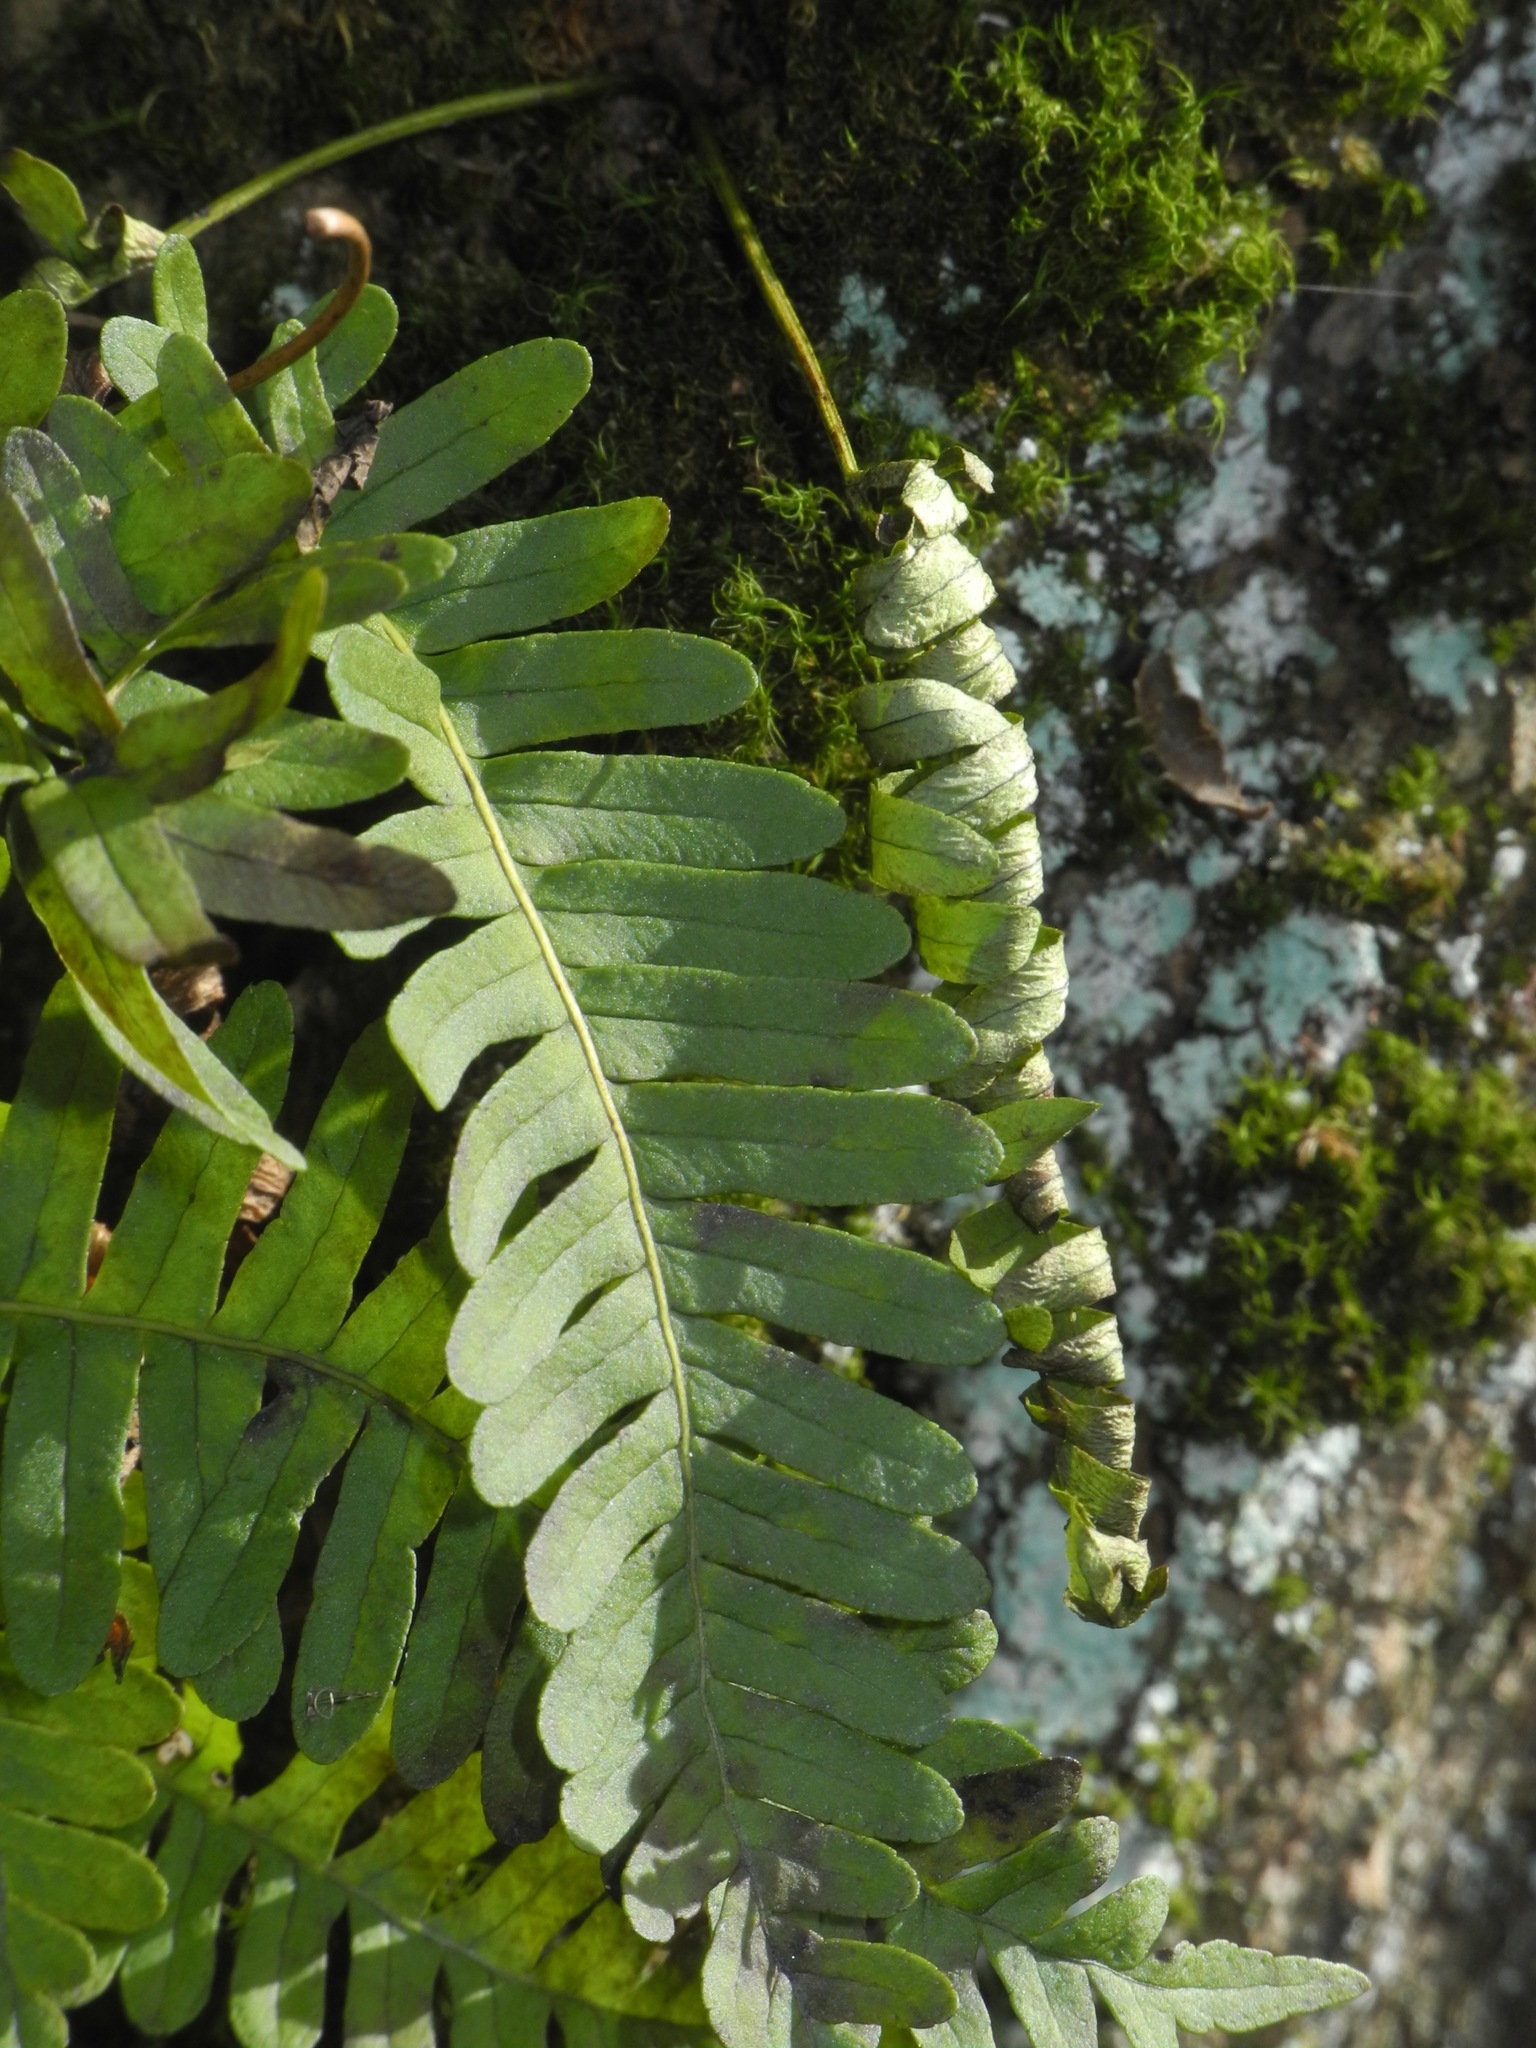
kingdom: Plantae
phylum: Tracheophyta
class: Polypodiopsida
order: Polypodiales
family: Polypodiaceae
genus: Polypodium
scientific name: Polypodium virginianum
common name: American wall fern
